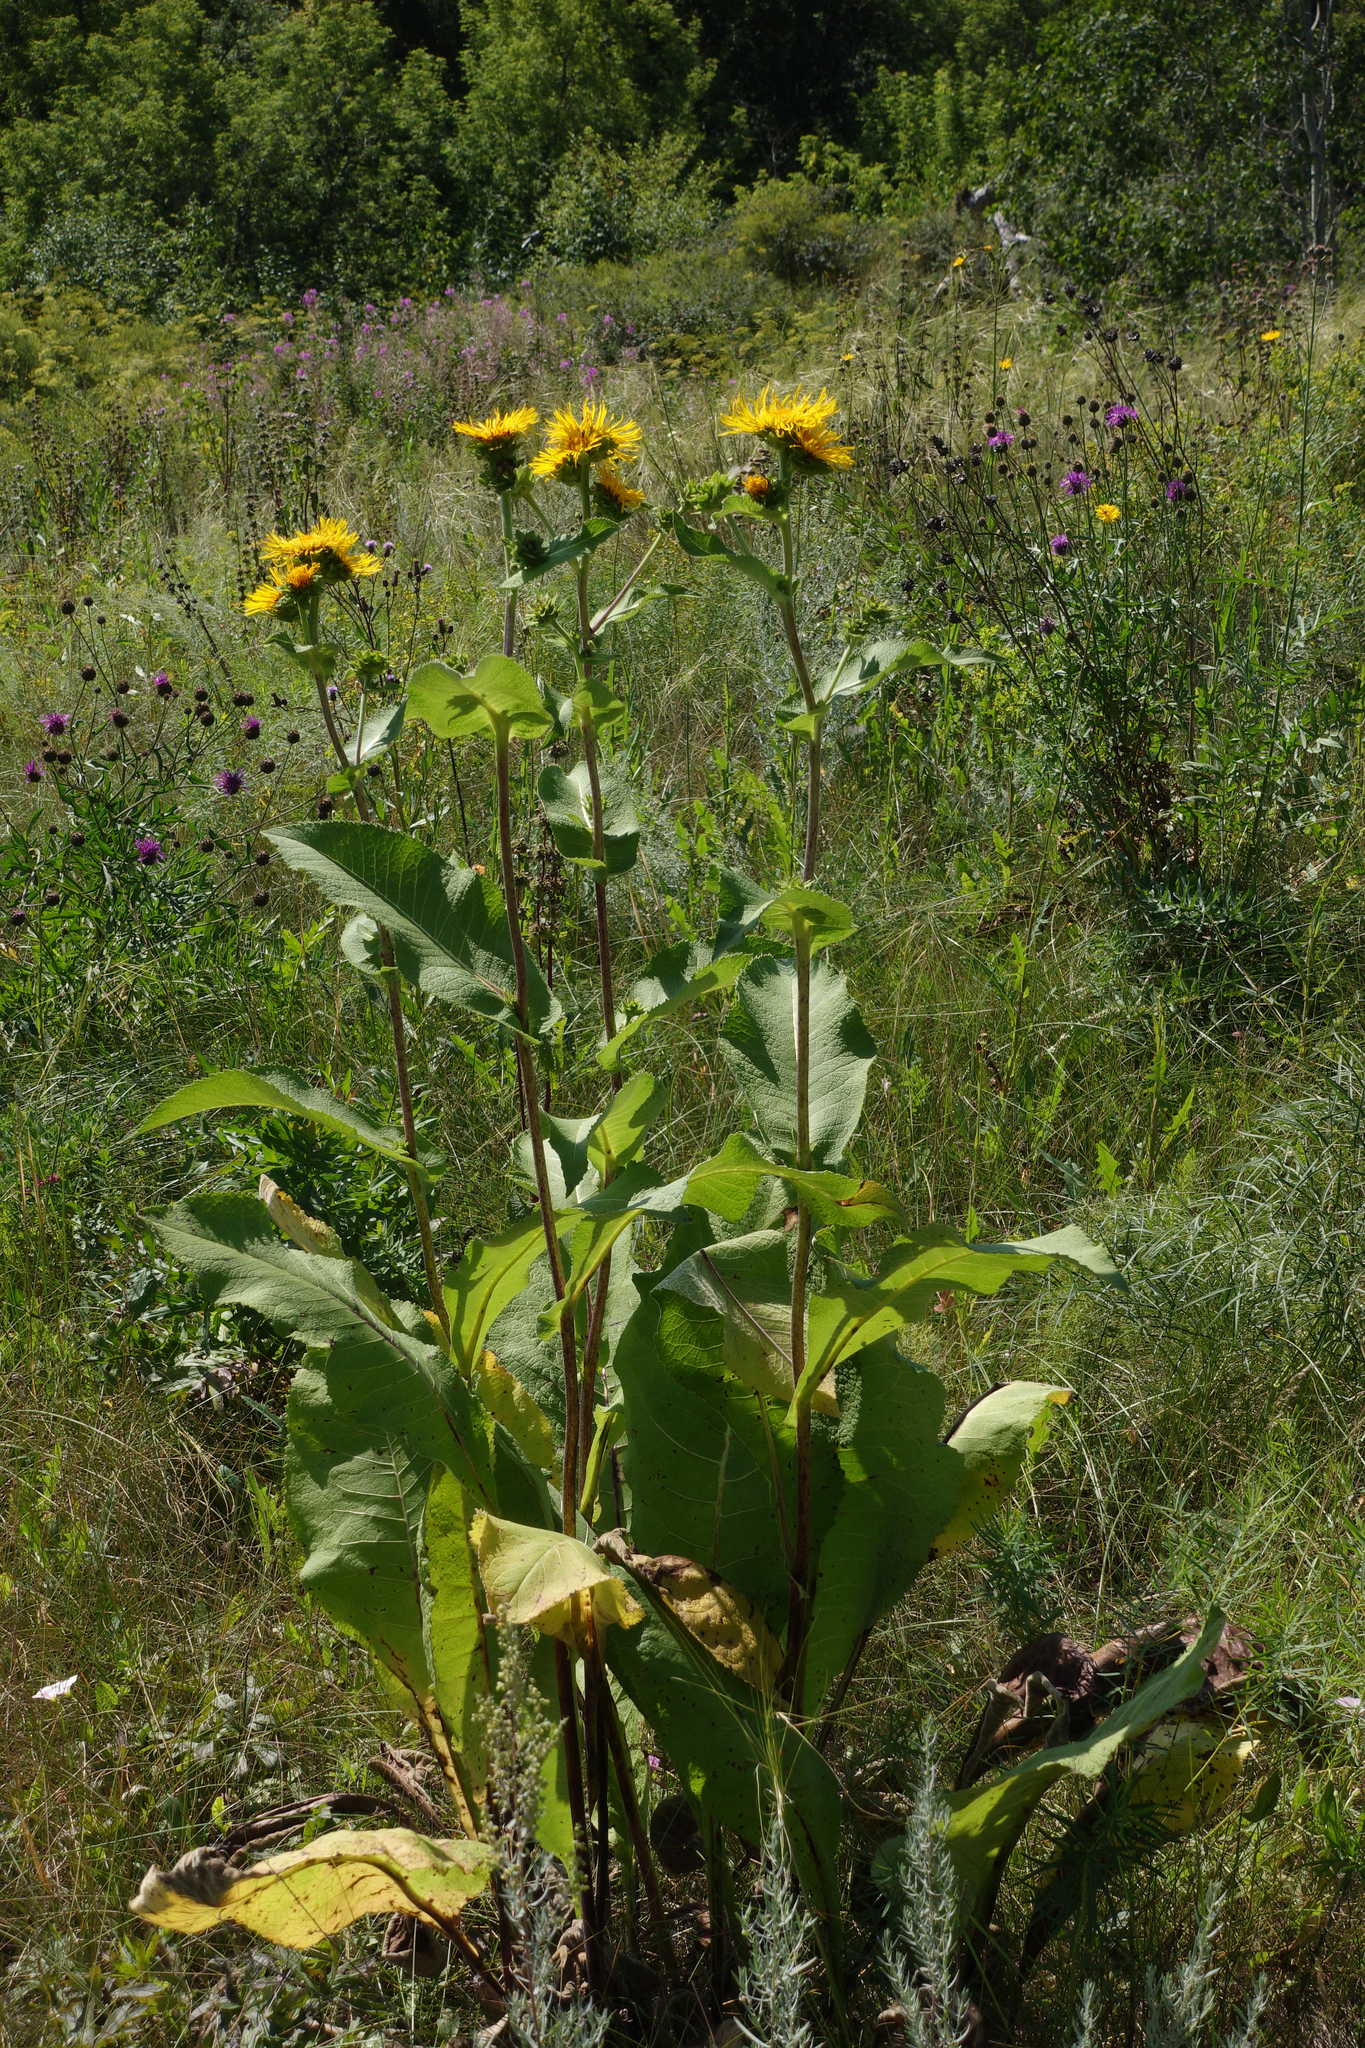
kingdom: Plantae
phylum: Tracheophyta
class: Magnoliopsida
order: Asterales
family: Asteraceae
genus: Inula
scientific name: Inula helenium
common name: Elecampane
